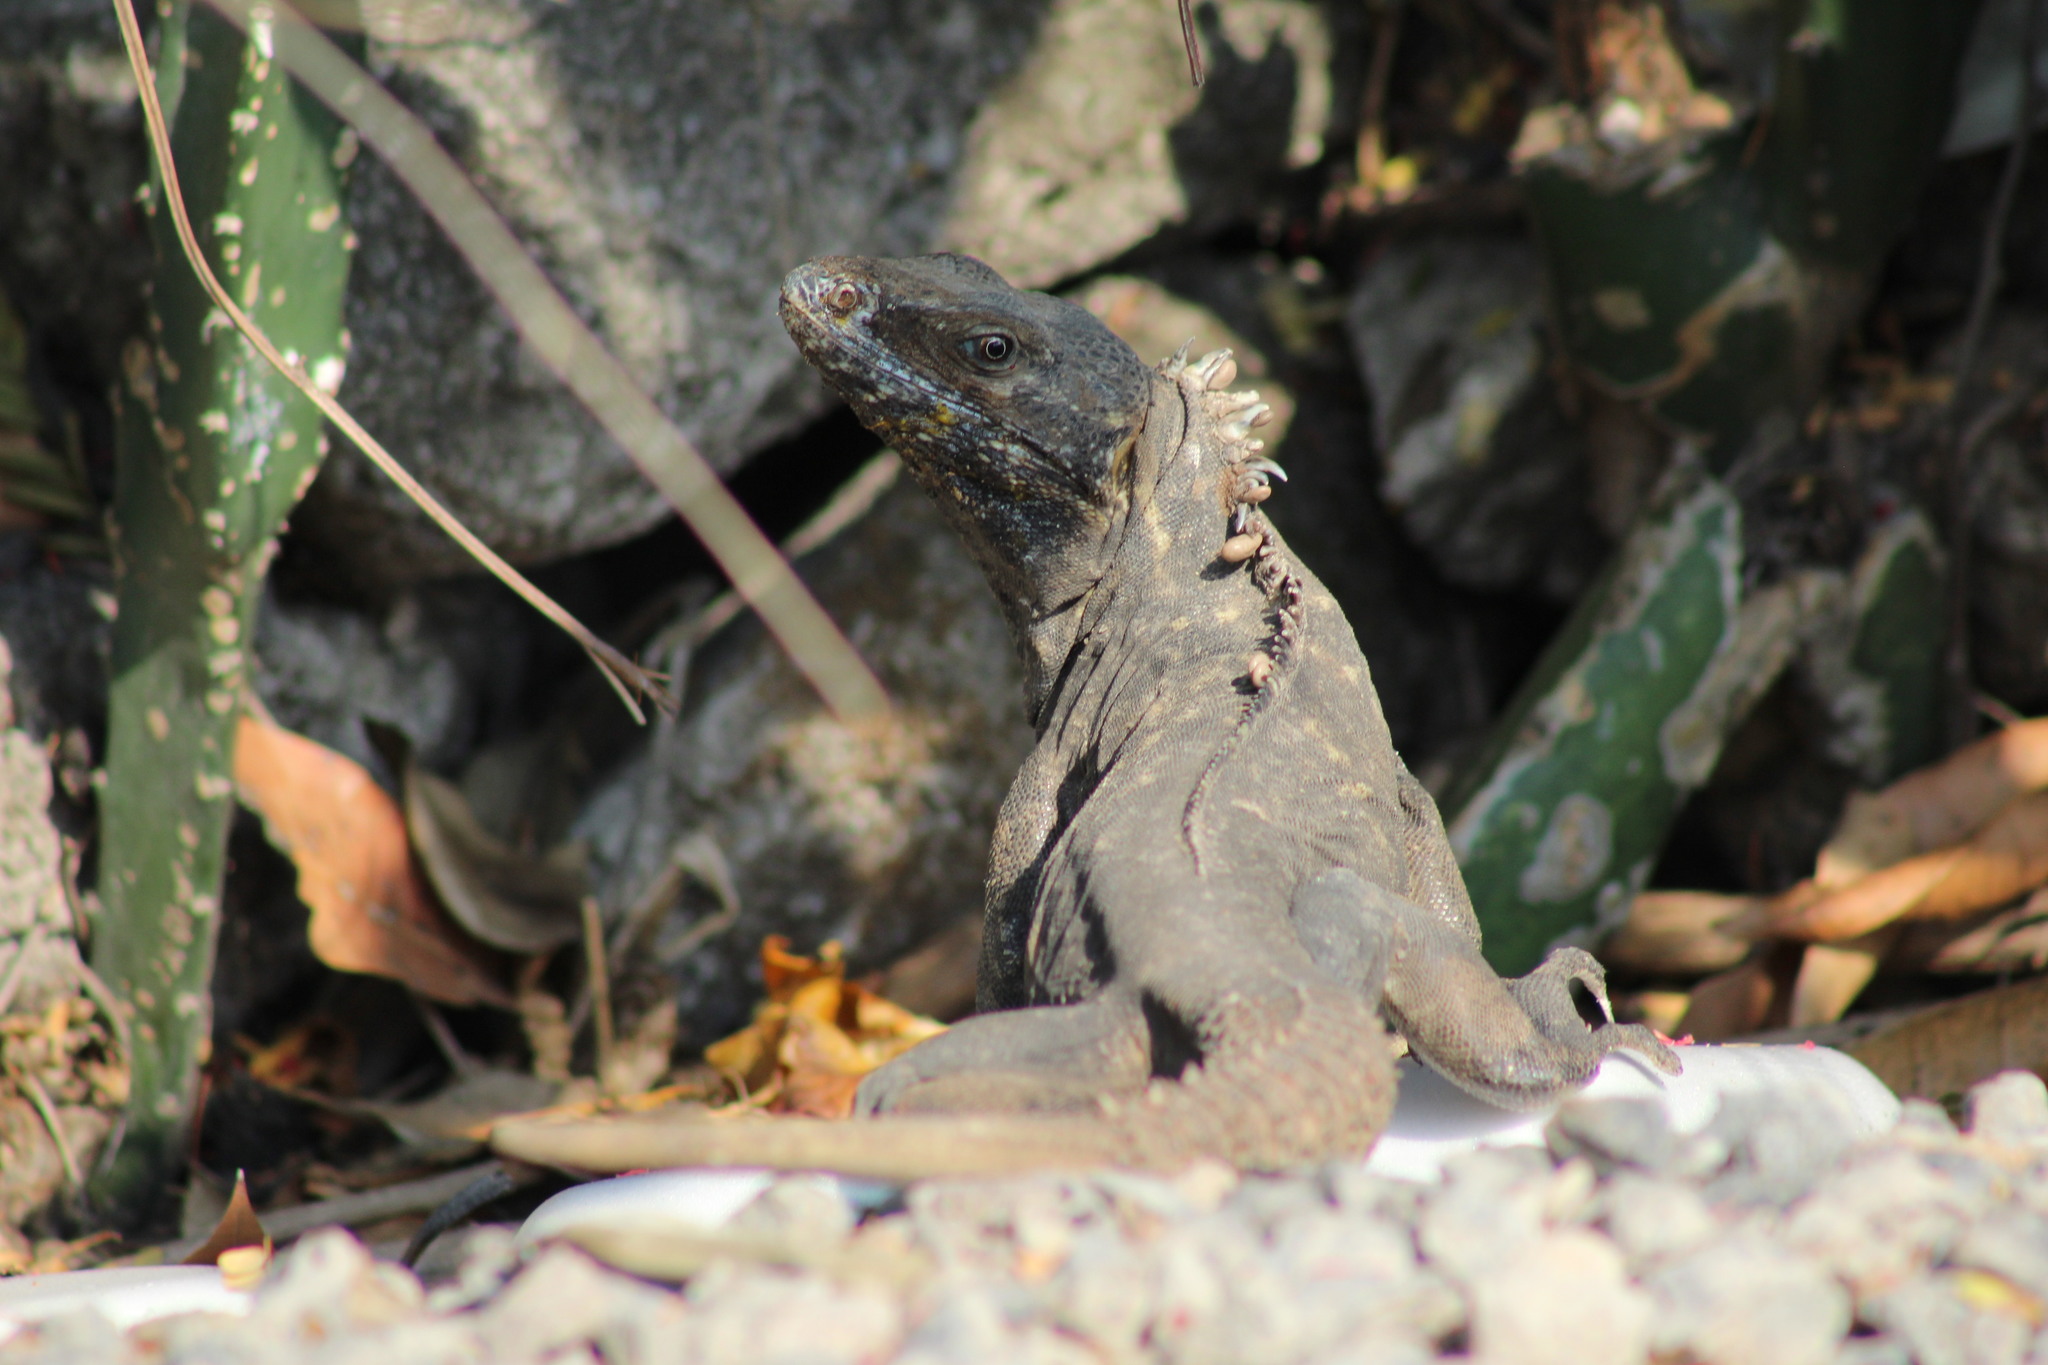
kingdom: Animalia
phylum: Chordata
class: Squamata
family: Iguanidae
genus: Ctenosaura
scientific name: Ctenosaura acanthura
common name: Northeastern spinytail iguana
